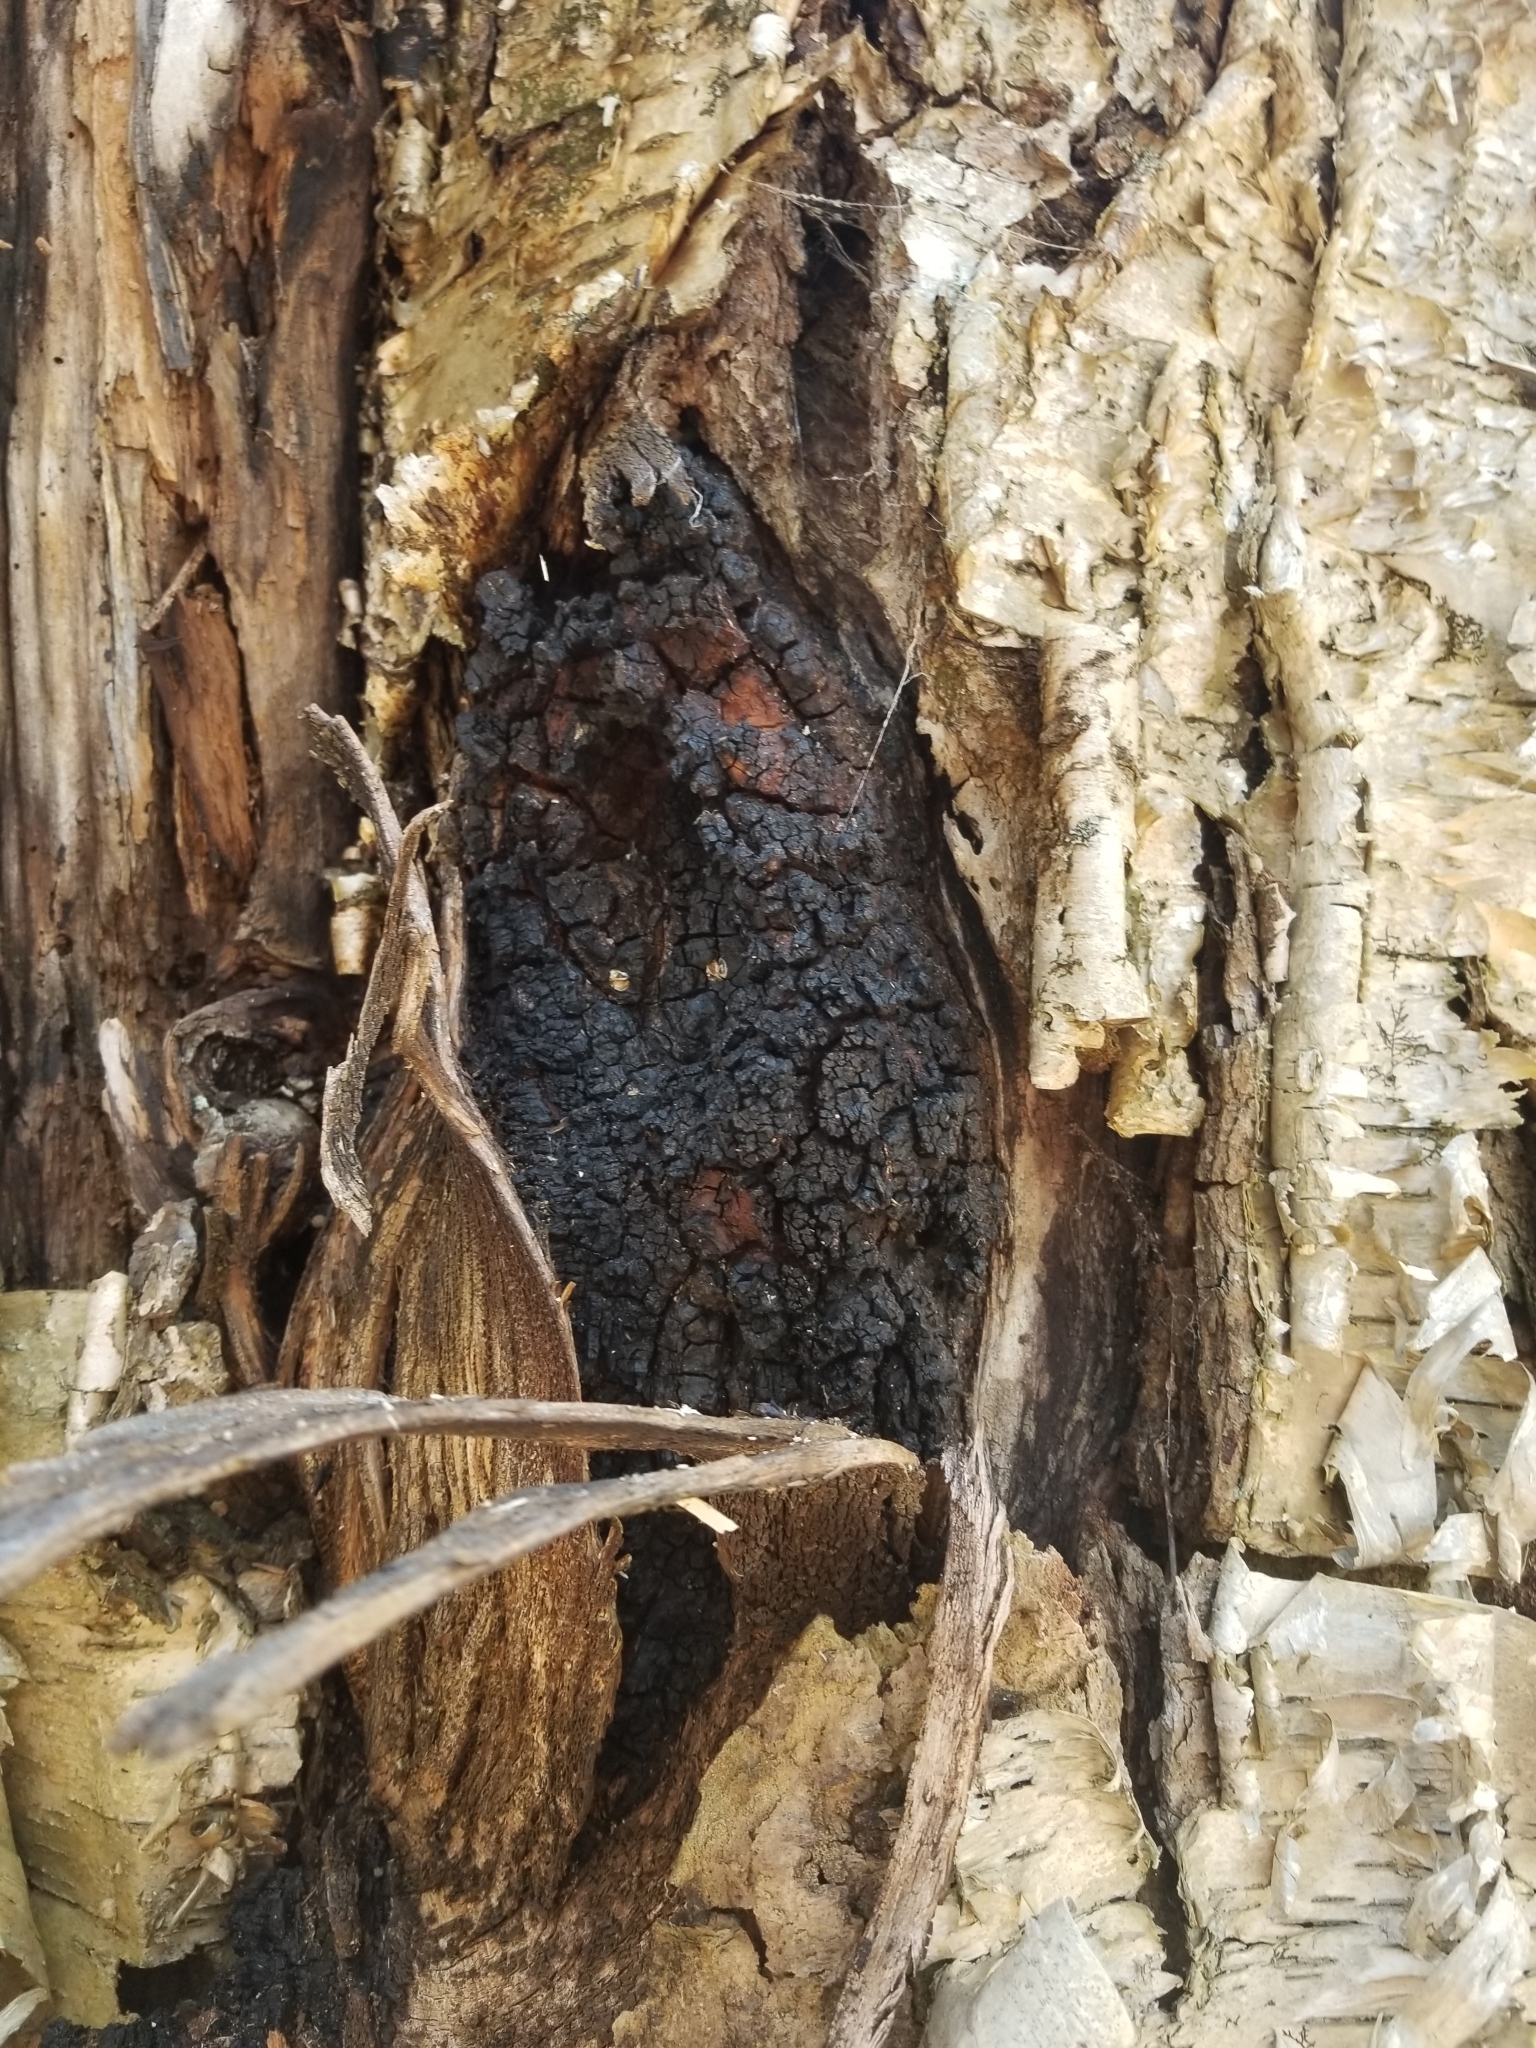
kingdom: Fungi
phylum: Basidiomycota
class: Agaricomycetes
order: Hymenochaetales
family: Hymenochaetaceae
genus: Inonotus
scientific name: Inonotus obliquus
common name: Chaga
